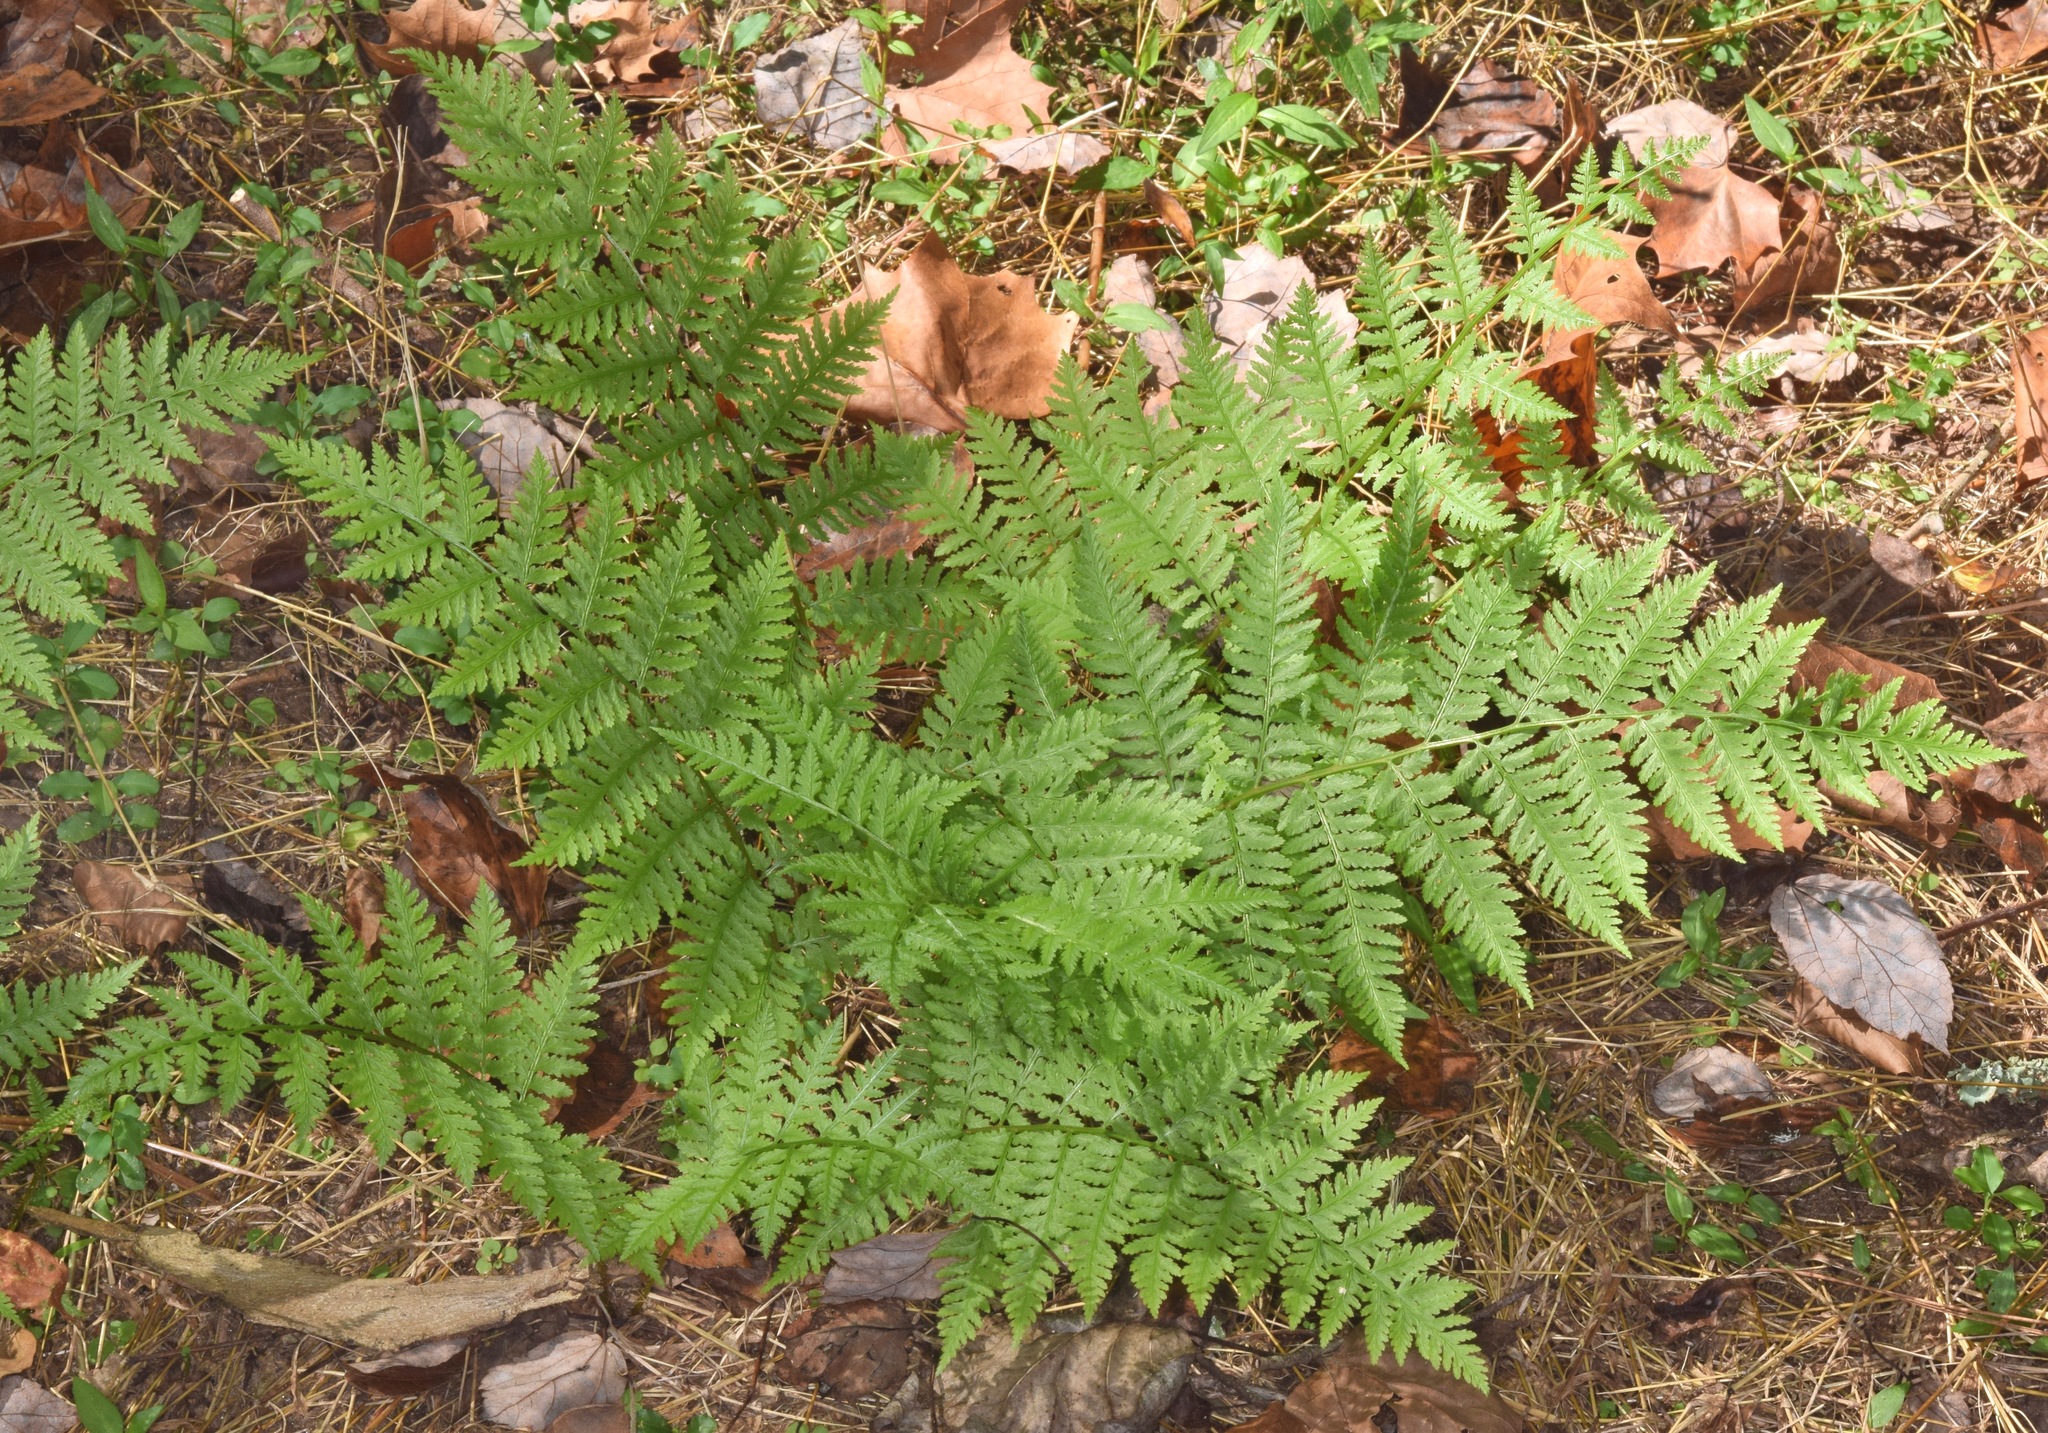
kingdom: Plantae
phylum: Tracheophyta
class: Polypodiopsida
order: Polypodiales
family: Athyriaceae
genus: Athyrium
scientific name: Athyrium asplenioides
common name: Southern lady fern
